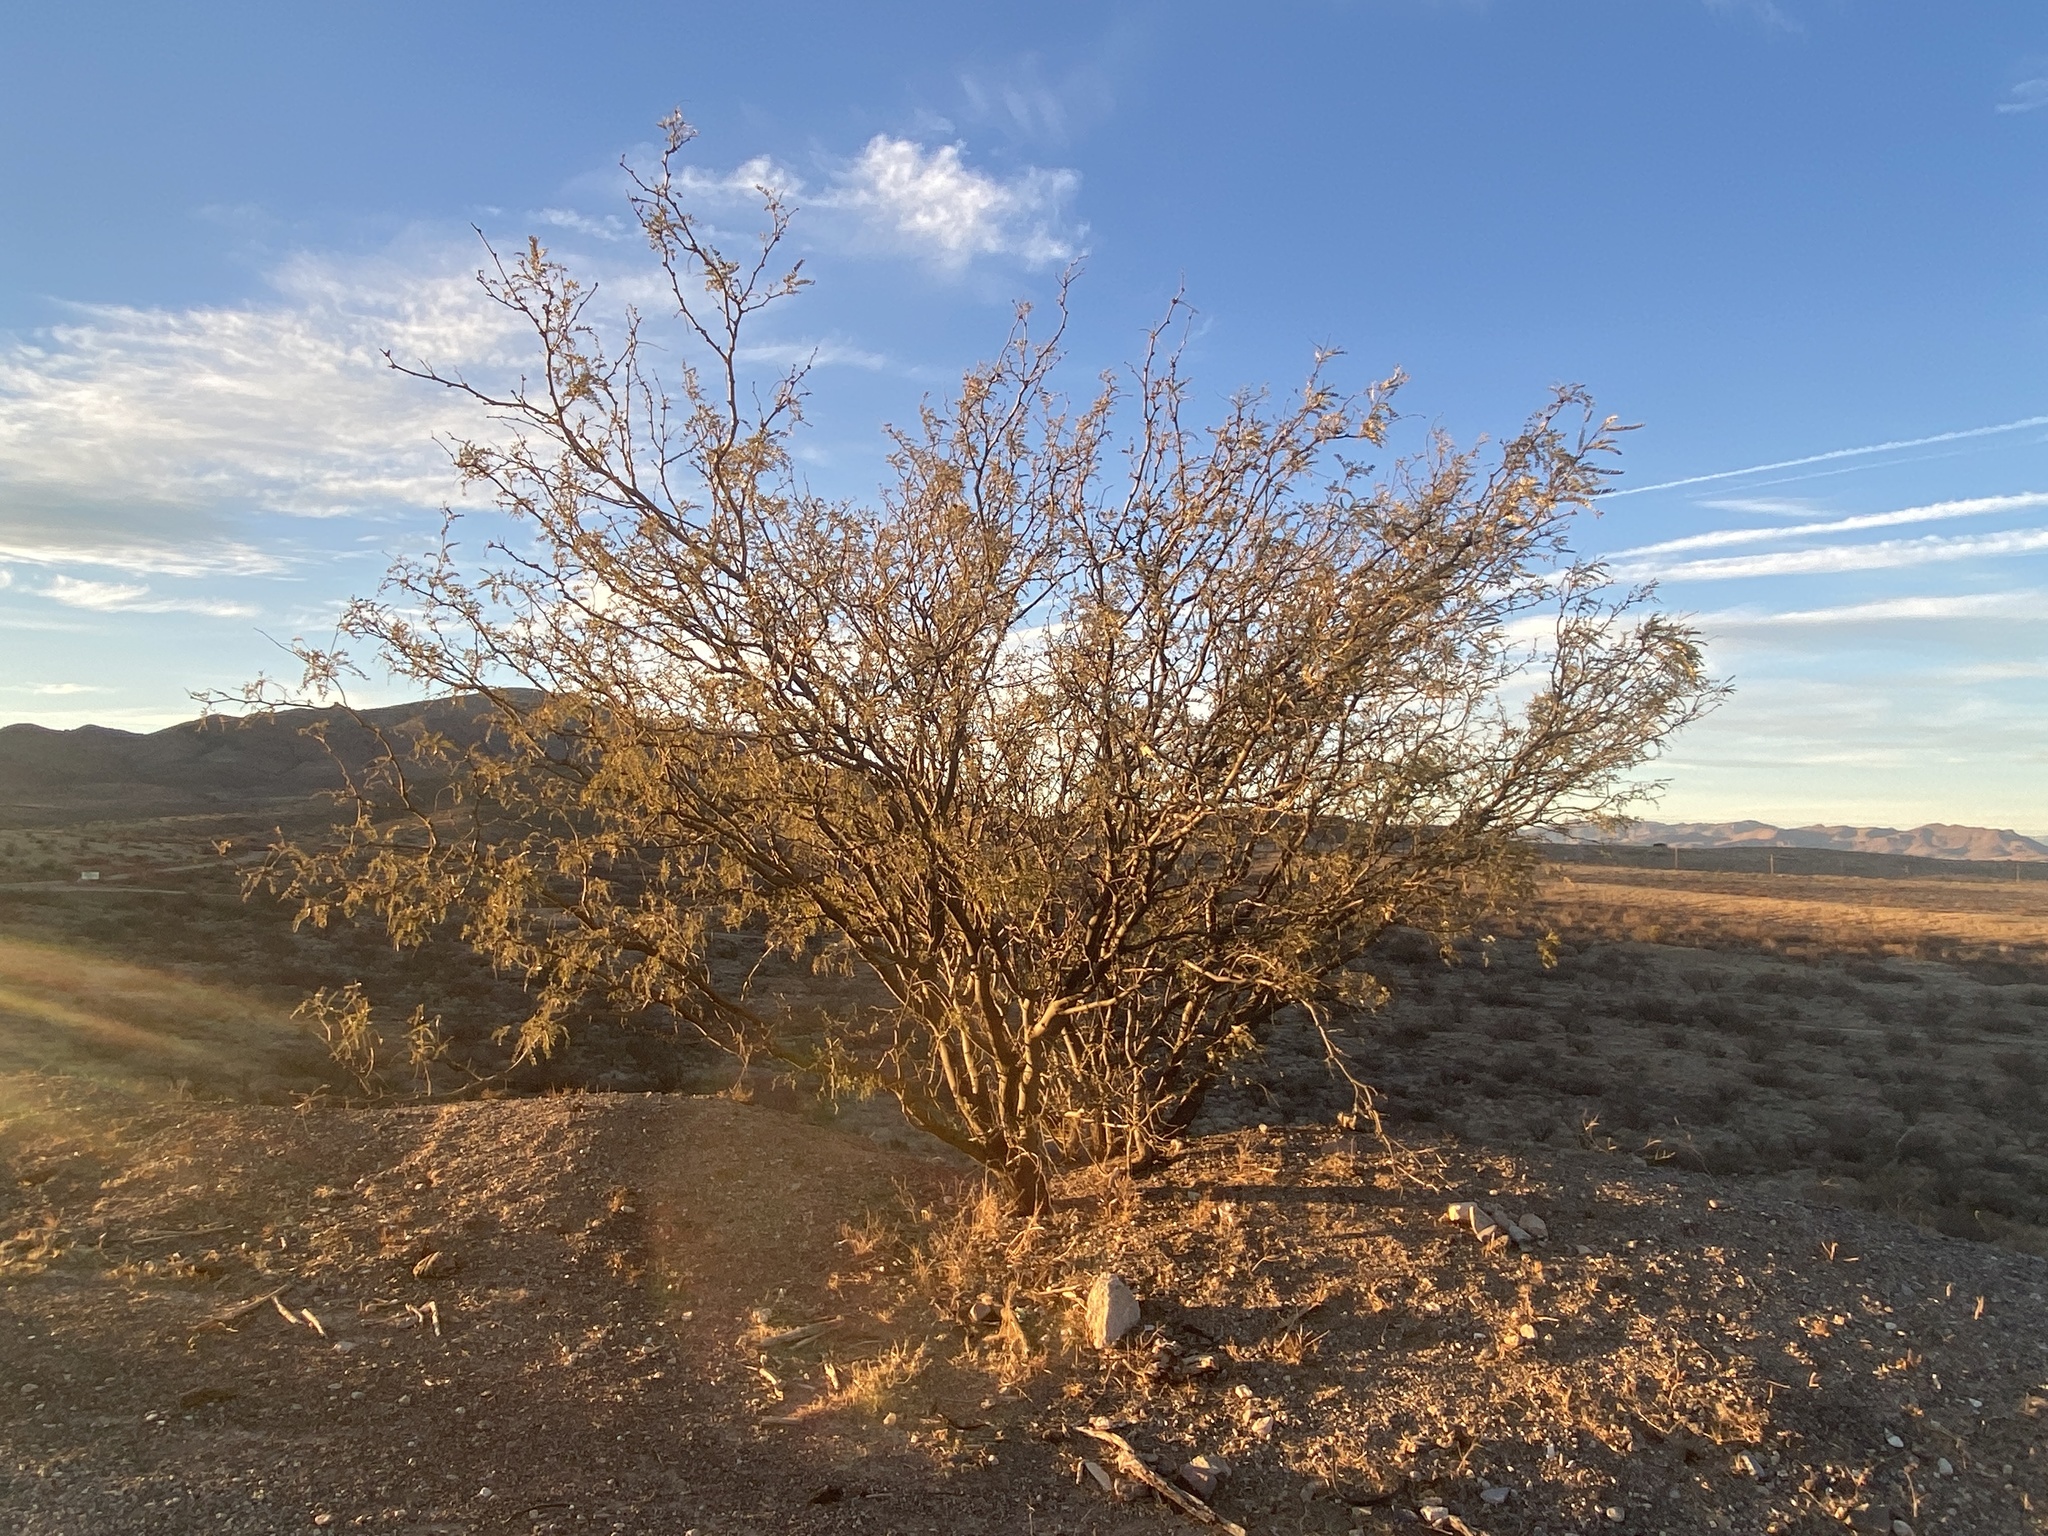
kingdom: Plantae
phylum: Tracheophyta
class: Magnoliopsida
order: Fabales
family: Fabaceae
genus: Prosopis
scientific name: Prosopis velutina
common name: Velvet mesquite
